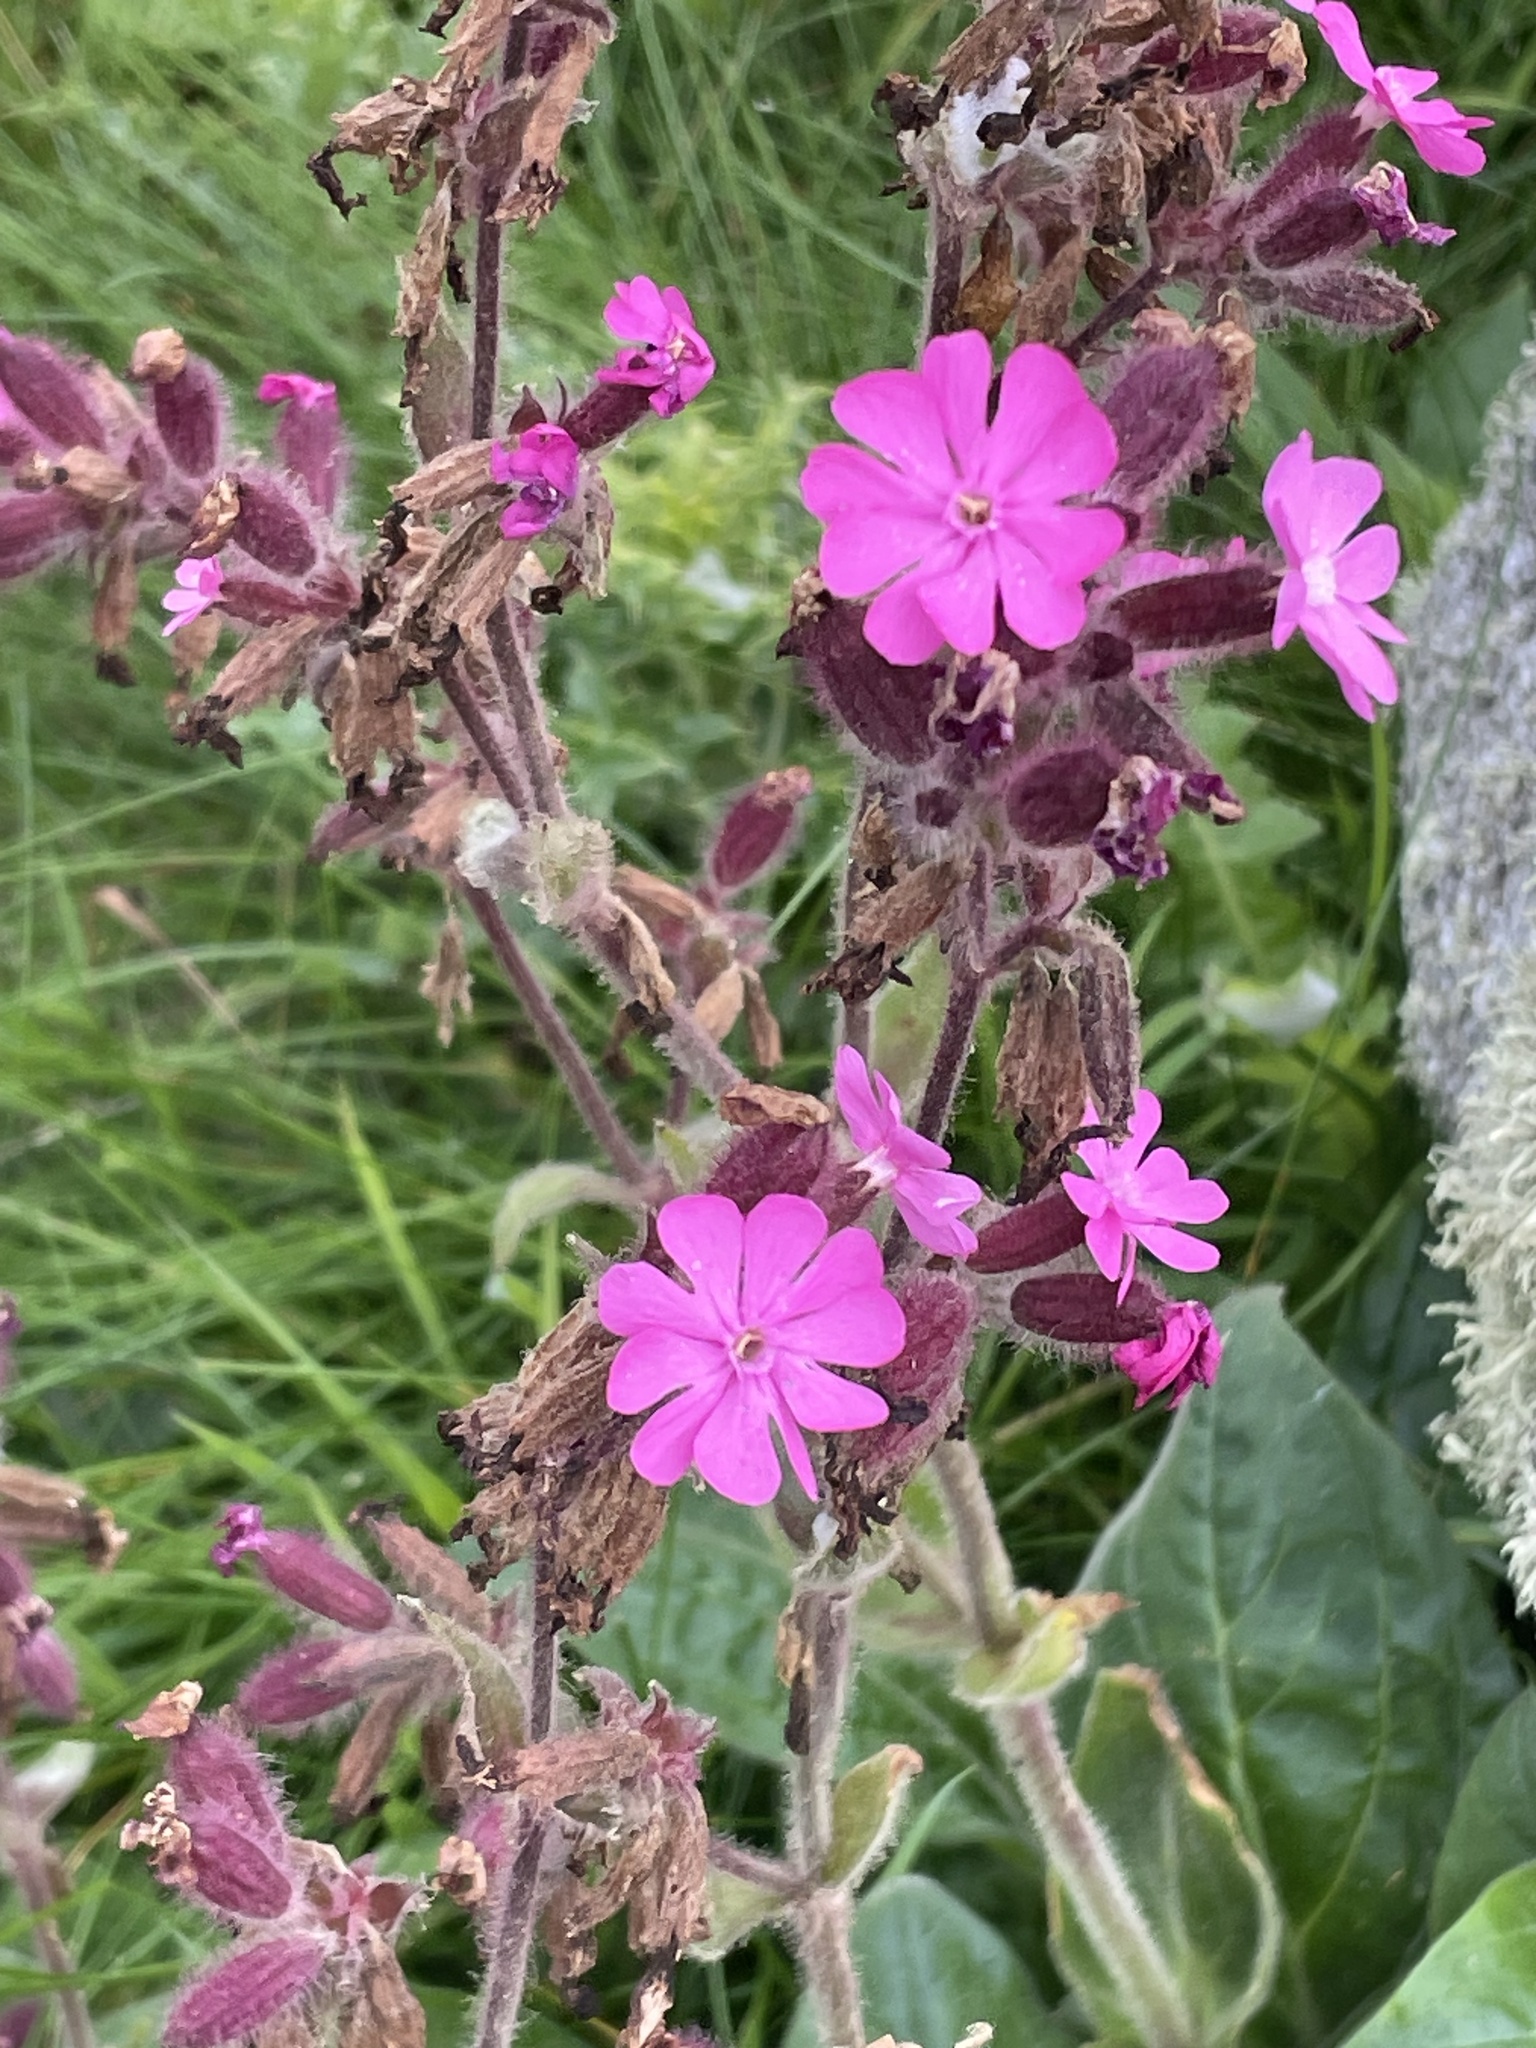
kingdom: Plantae
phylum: Tracheophyta
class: Magnoliopsida
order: Caryophyllales
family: Caryophyllaceae
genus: Silene
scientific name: Silene dioica
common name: Red campion
